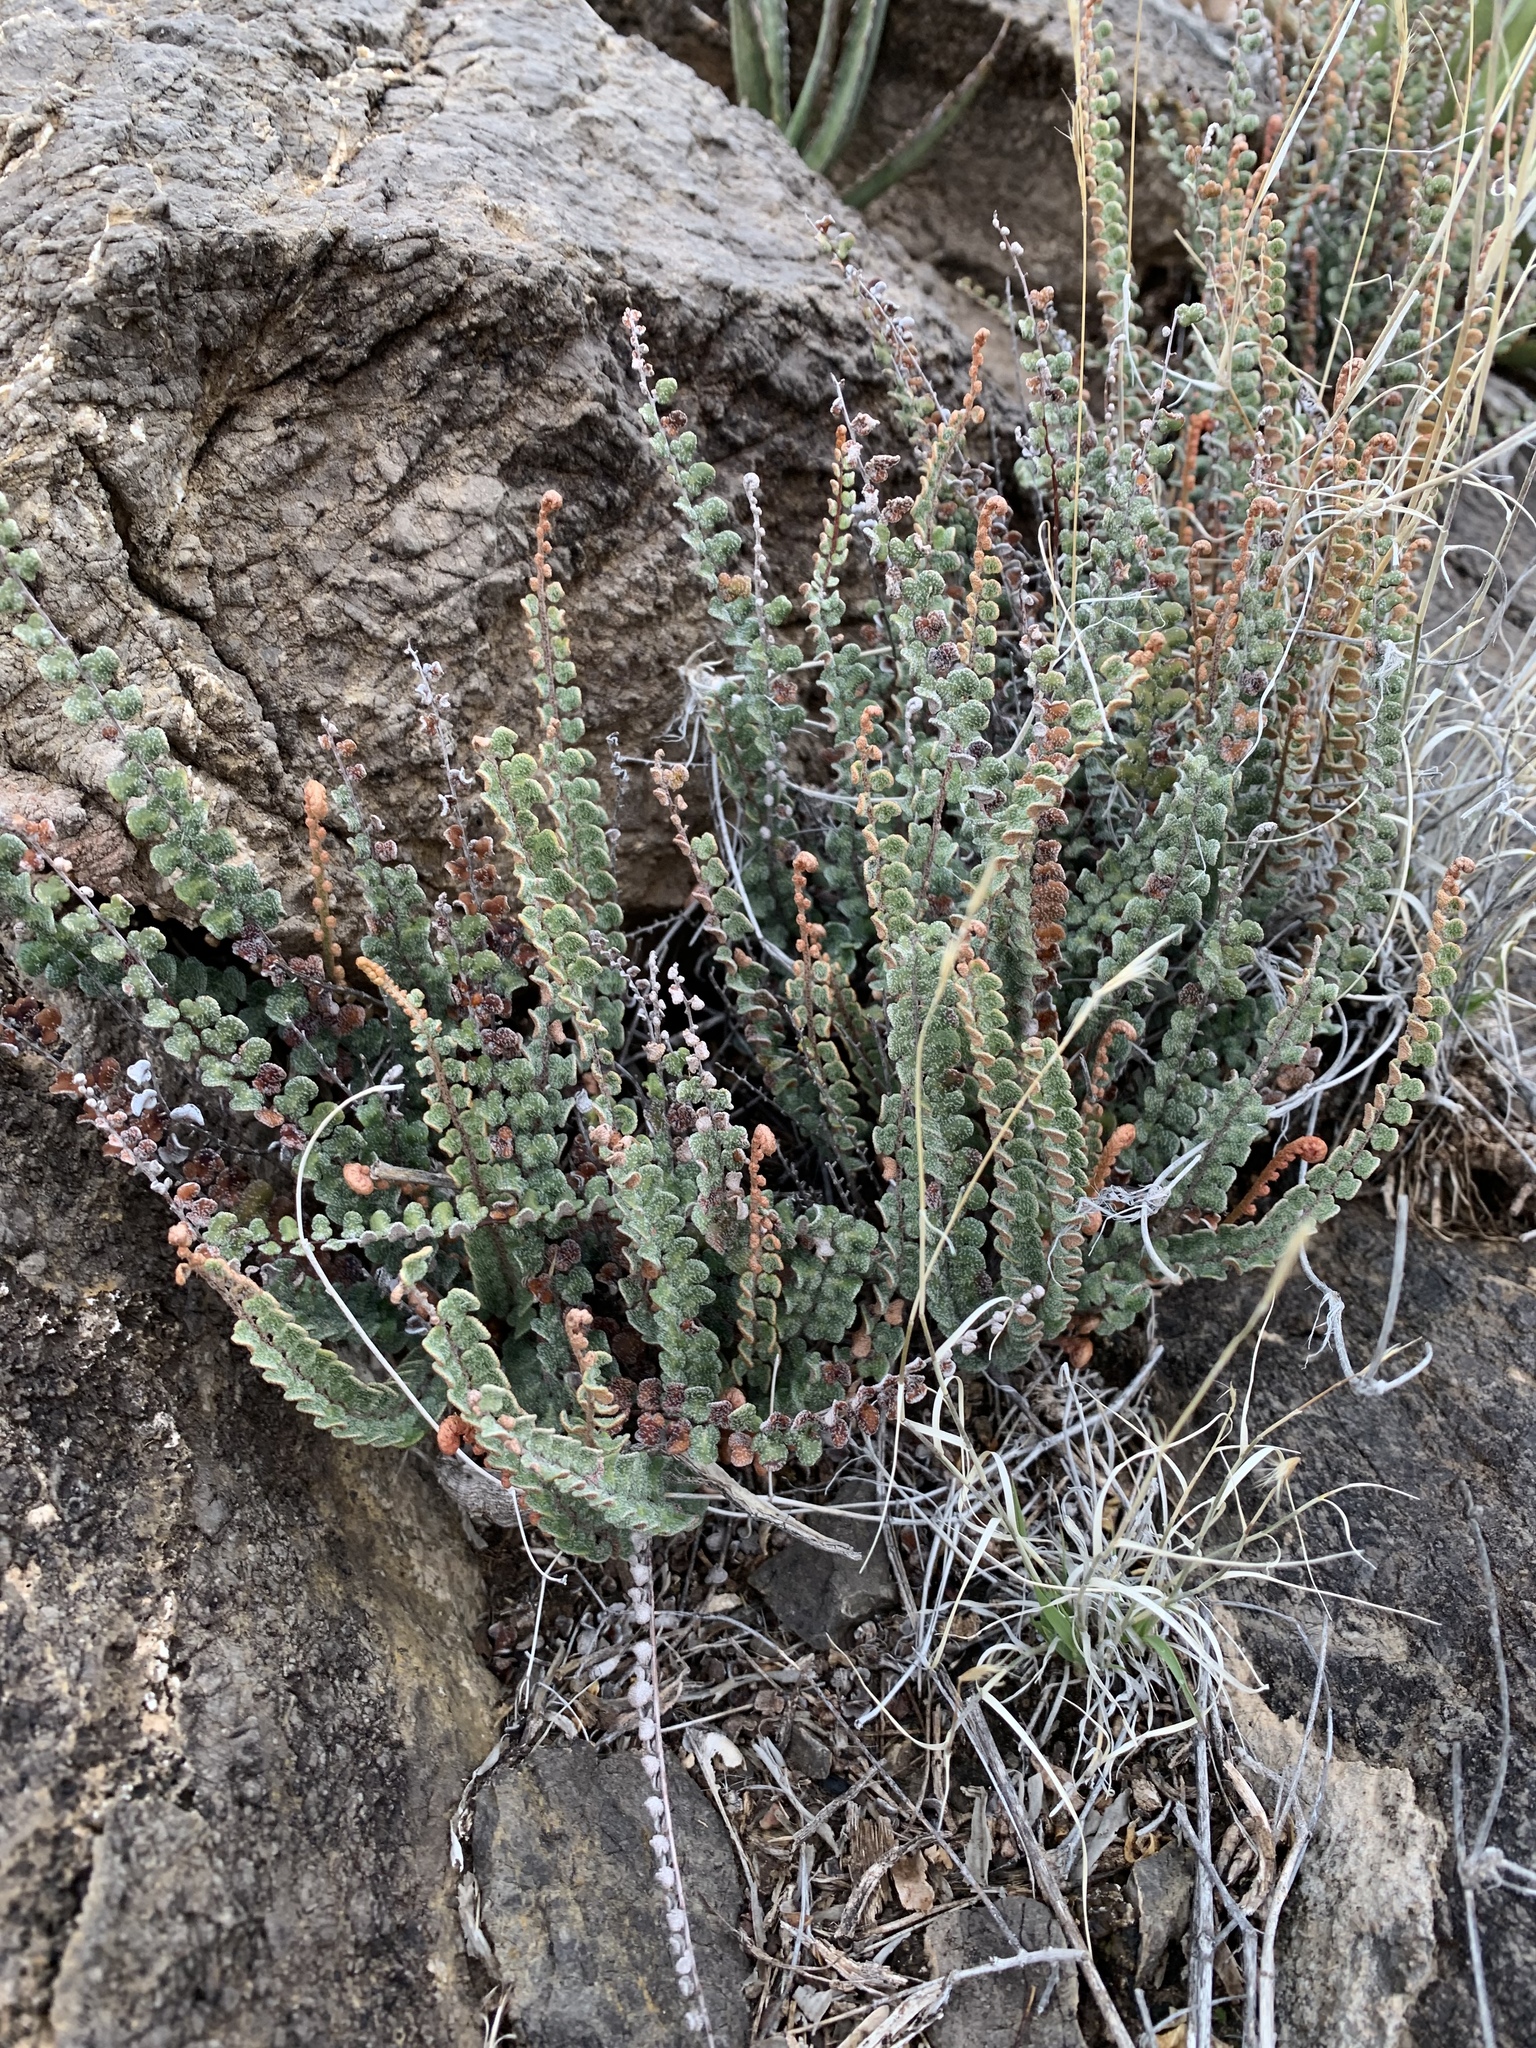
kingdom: Plantae
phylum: Tracheophyta
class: Polypodiopsida
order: Polypodiales
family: Pteridaceae
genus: Astrolepis
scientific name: Astrolepis cochisensis
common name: Scaly cloak fern
